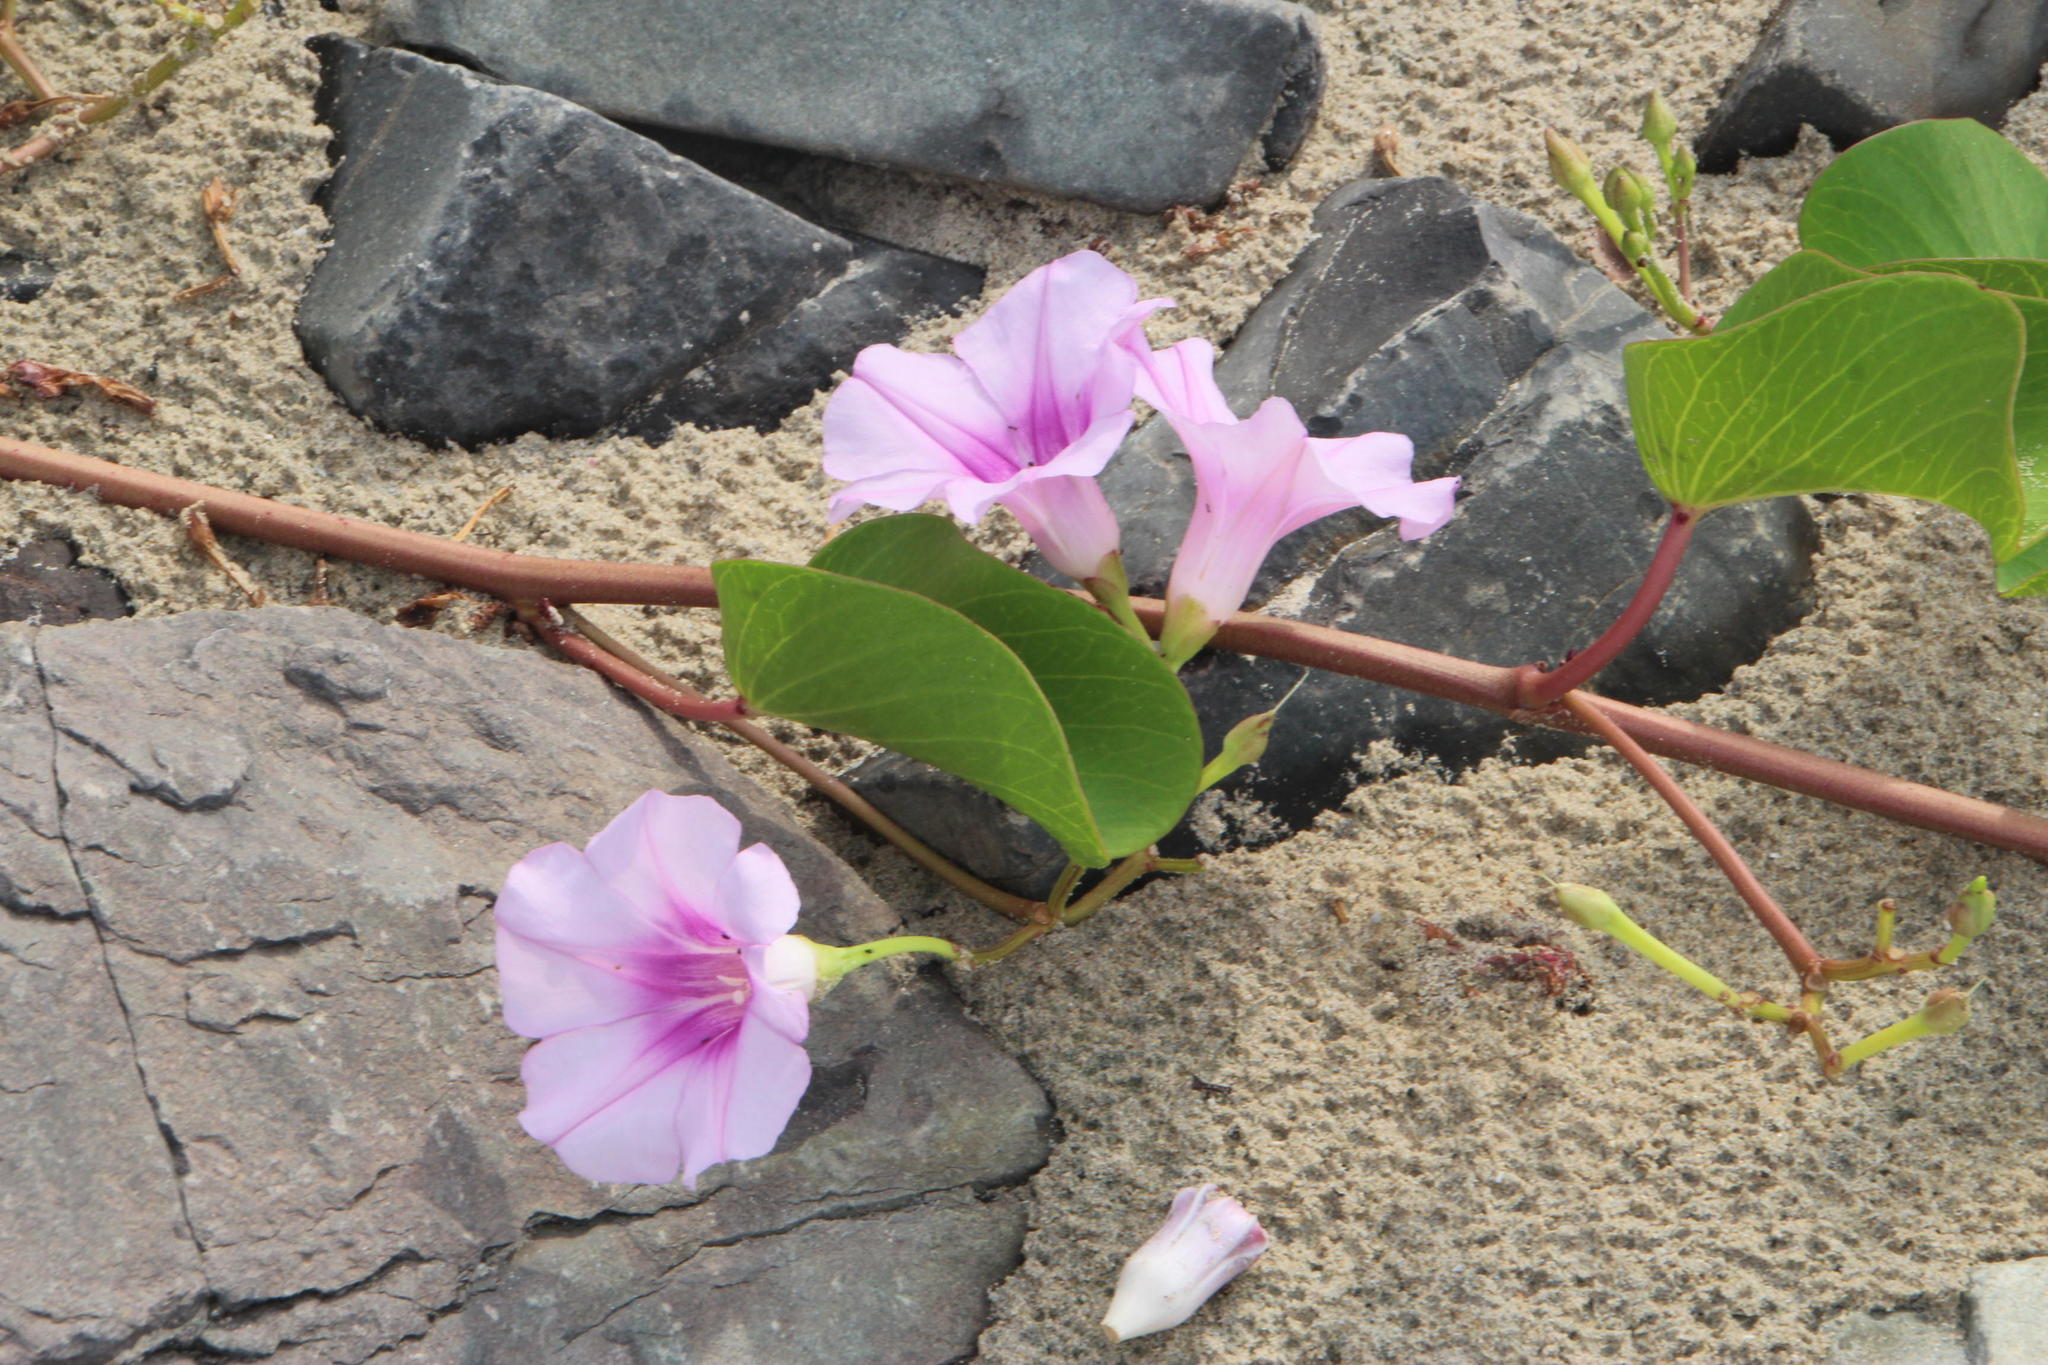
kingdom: Plantae
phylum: Tracheophyta
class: Magnoliopsida
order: Solanales
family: Convolvulaceae
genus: Ipomoea
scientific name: Ipomoea pes-caprae
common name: Beach morning glory
